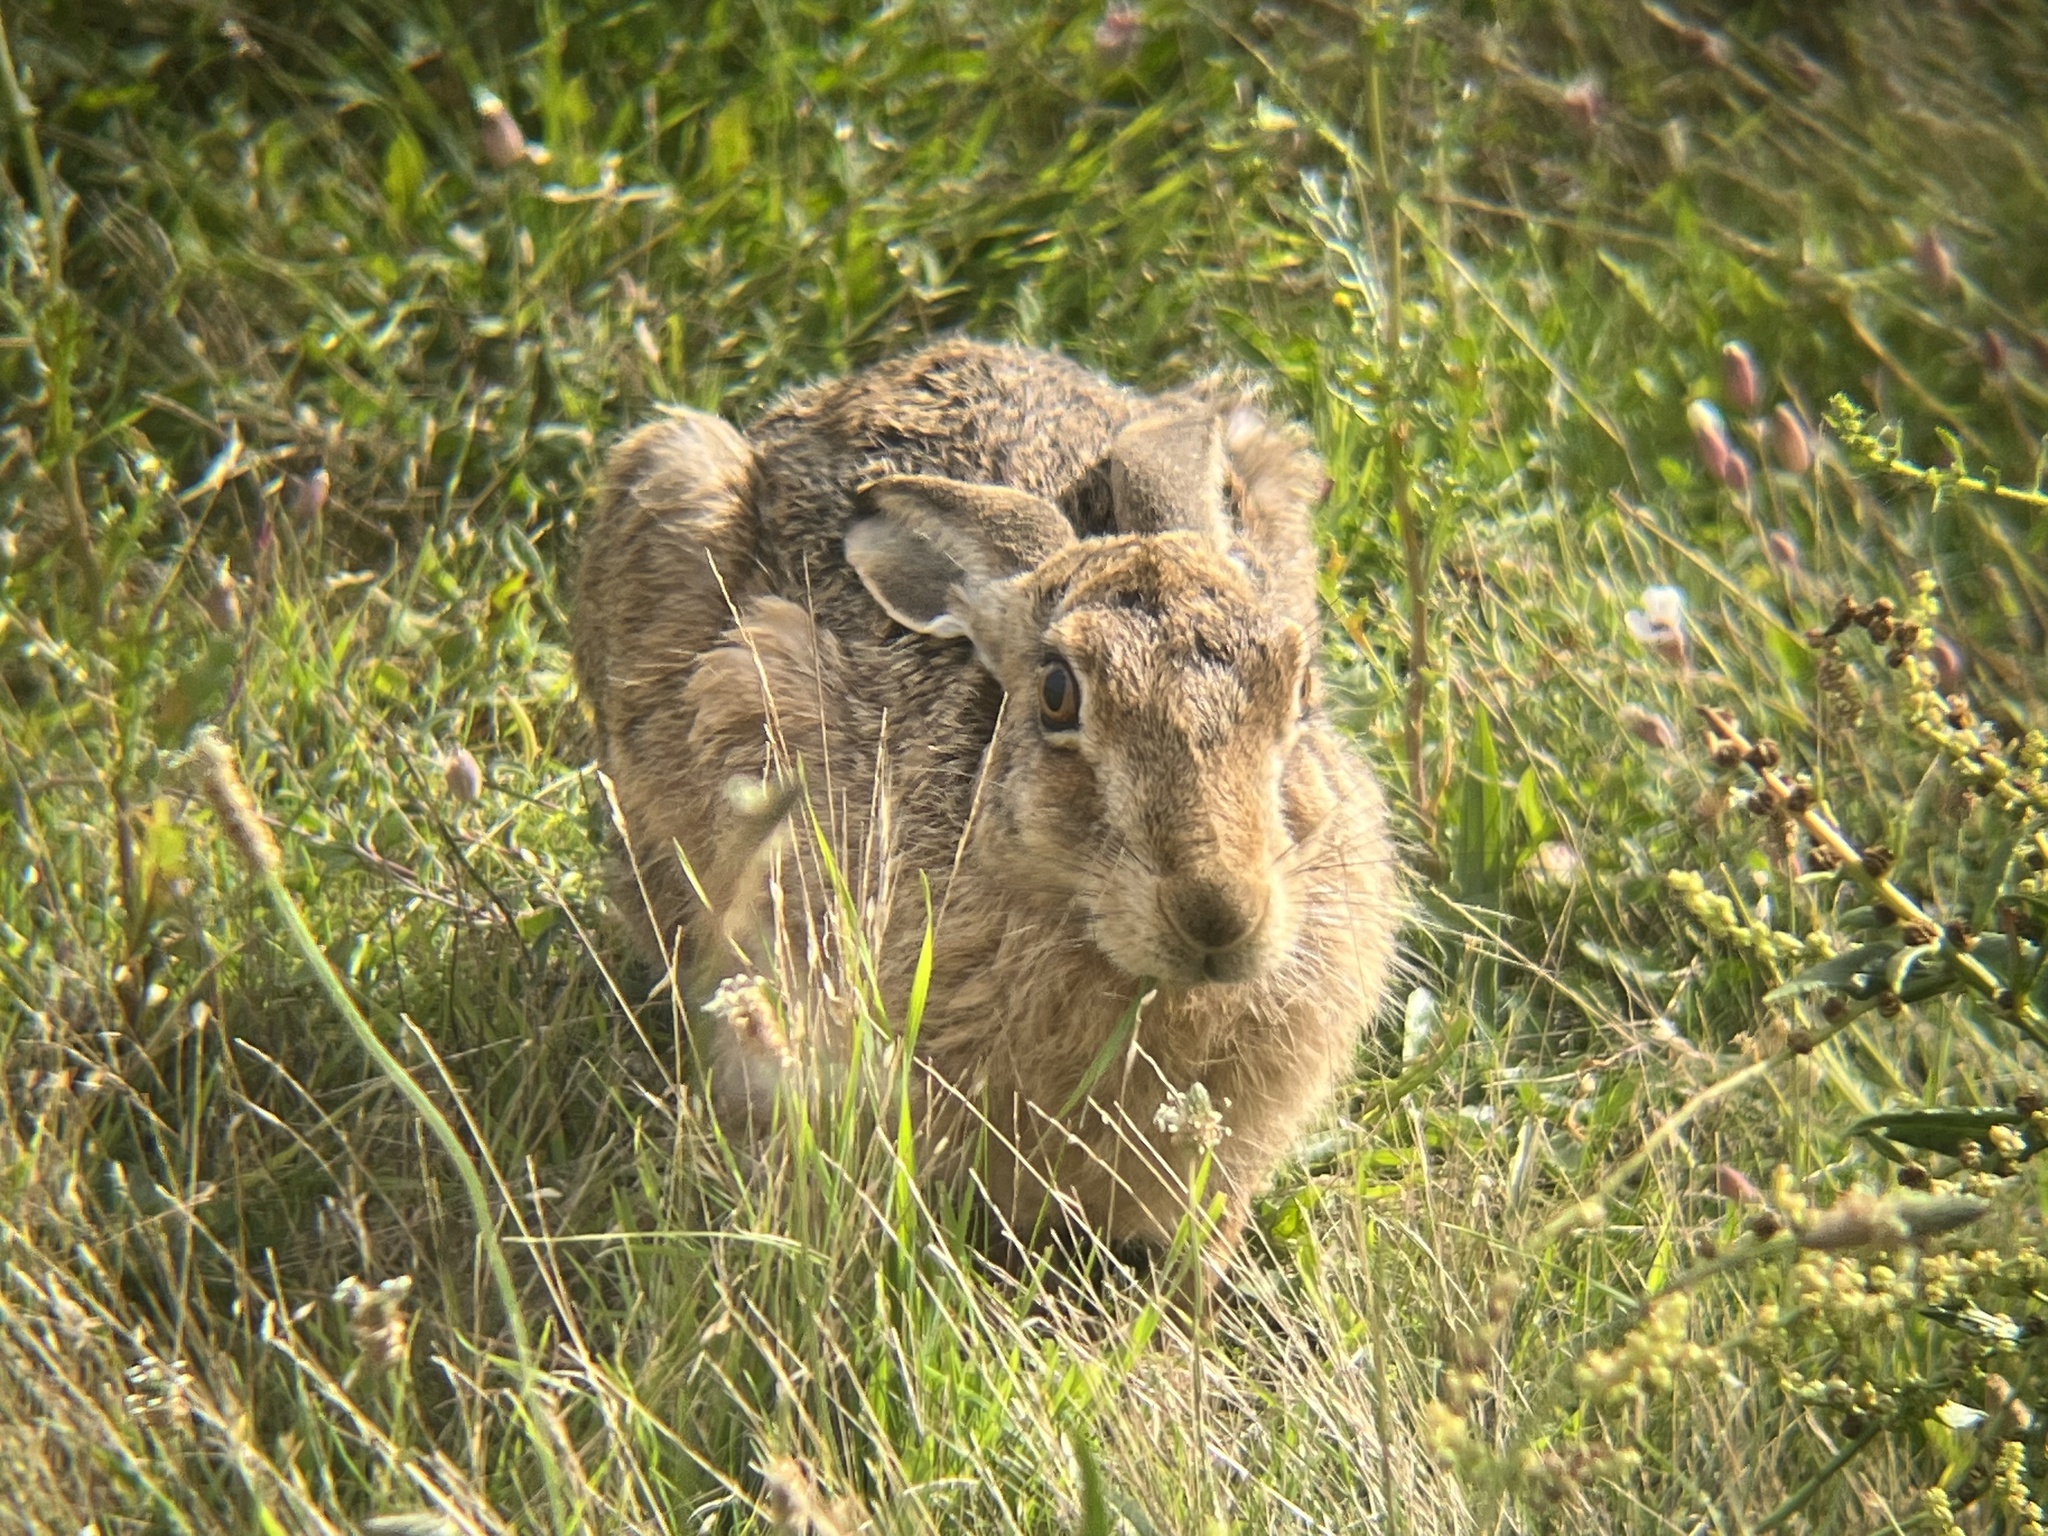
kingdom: Animalia
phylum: Chordata
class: Mammalia
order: Lagomorpha
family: Leporidae
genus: Lepus
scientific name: Lepus europaeus
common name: European hare
